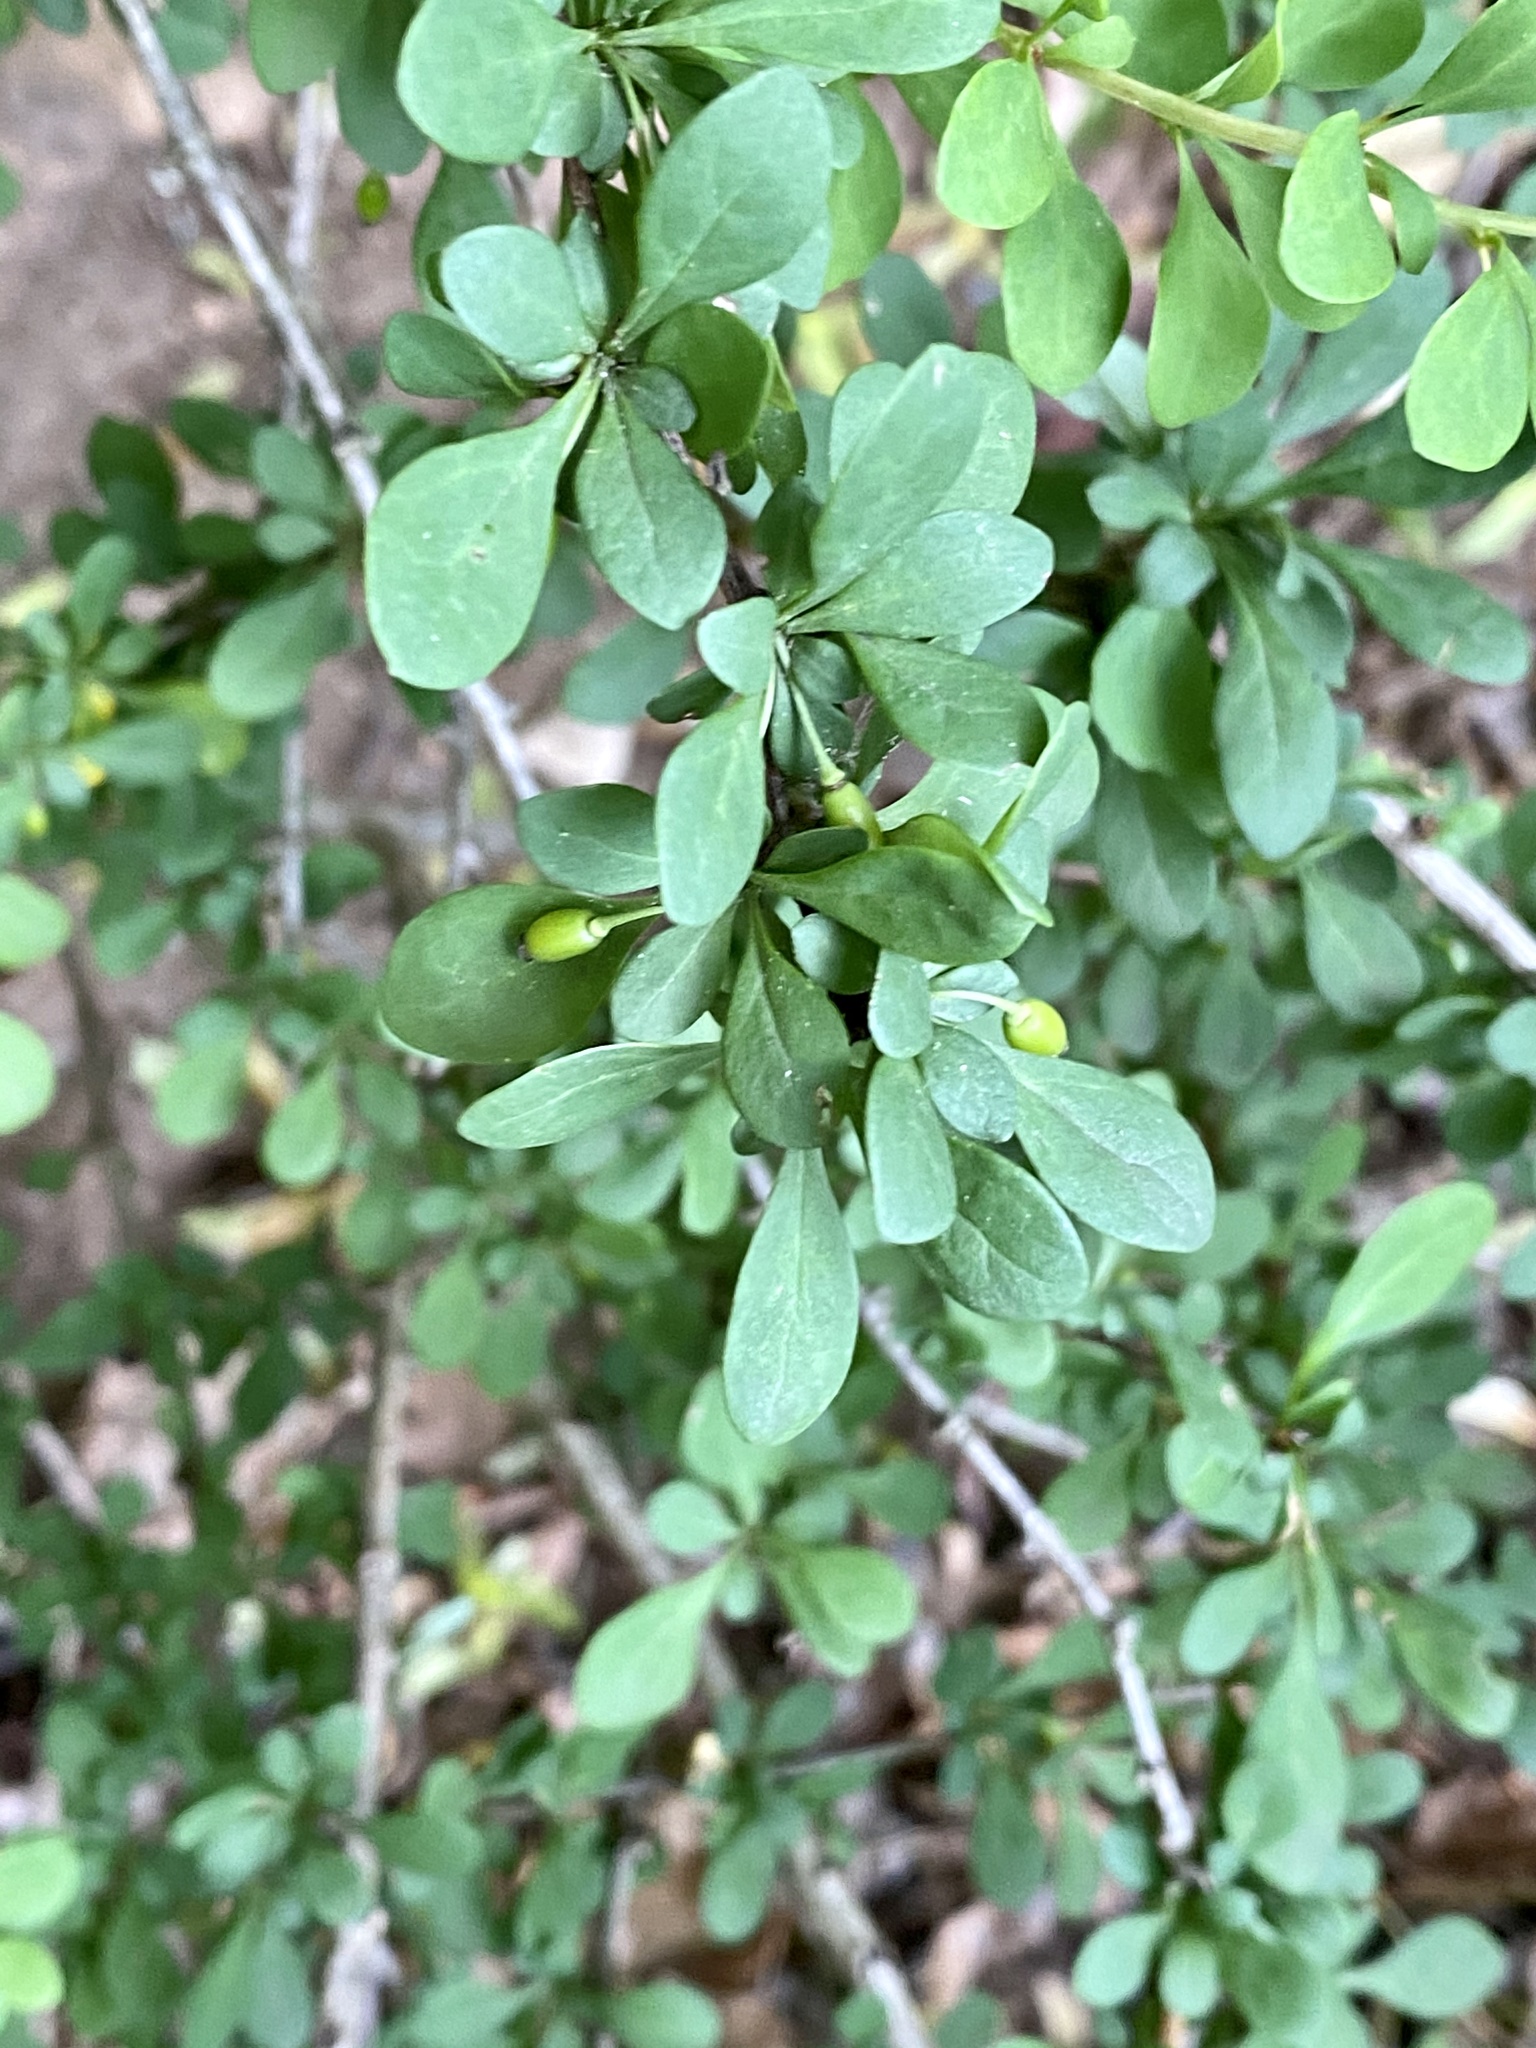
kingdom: Plantae
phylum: Tracheophyta
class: Magnoliopsida
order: Ranunculales
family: Berberidaceae
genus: Berberis
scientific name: Berberis thunbergii
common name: Japanese barberry
